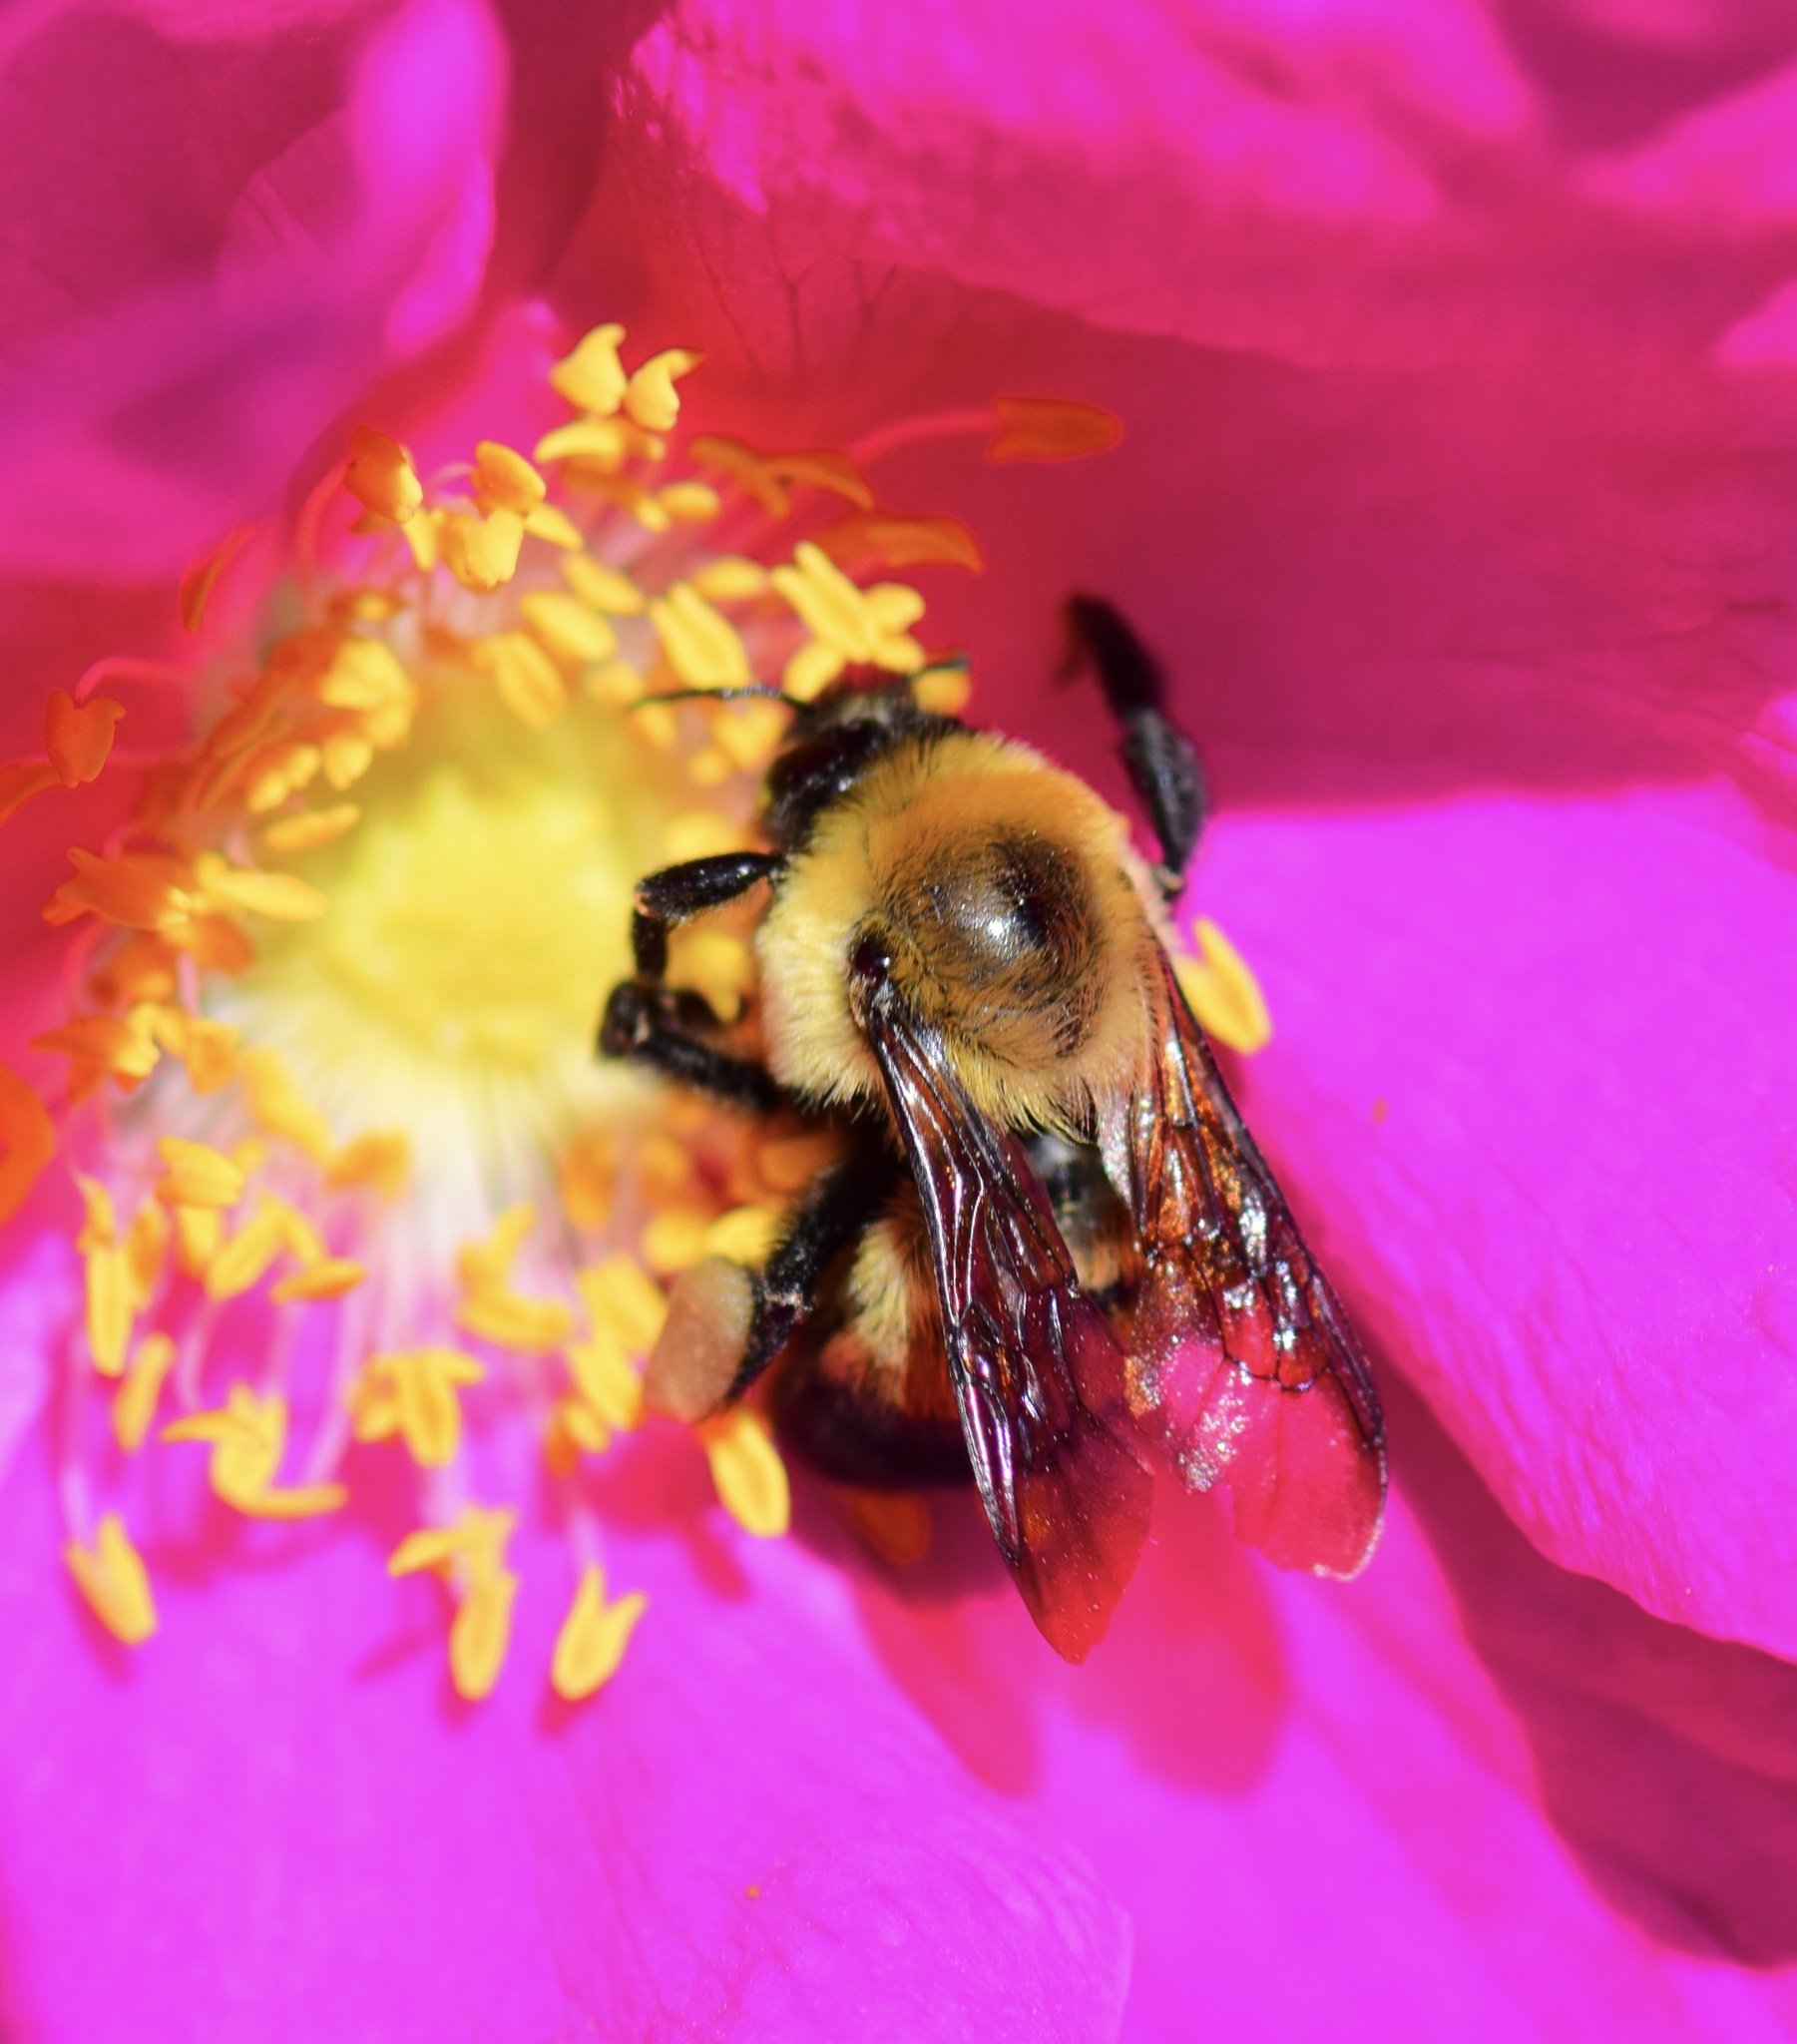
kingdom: Animalia
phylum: Arthropoda
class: Insecta
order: Hymenoptera
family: Apidae
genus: Bombus
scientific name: Bombus griseocollis
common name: Brown-belted bumble bee
